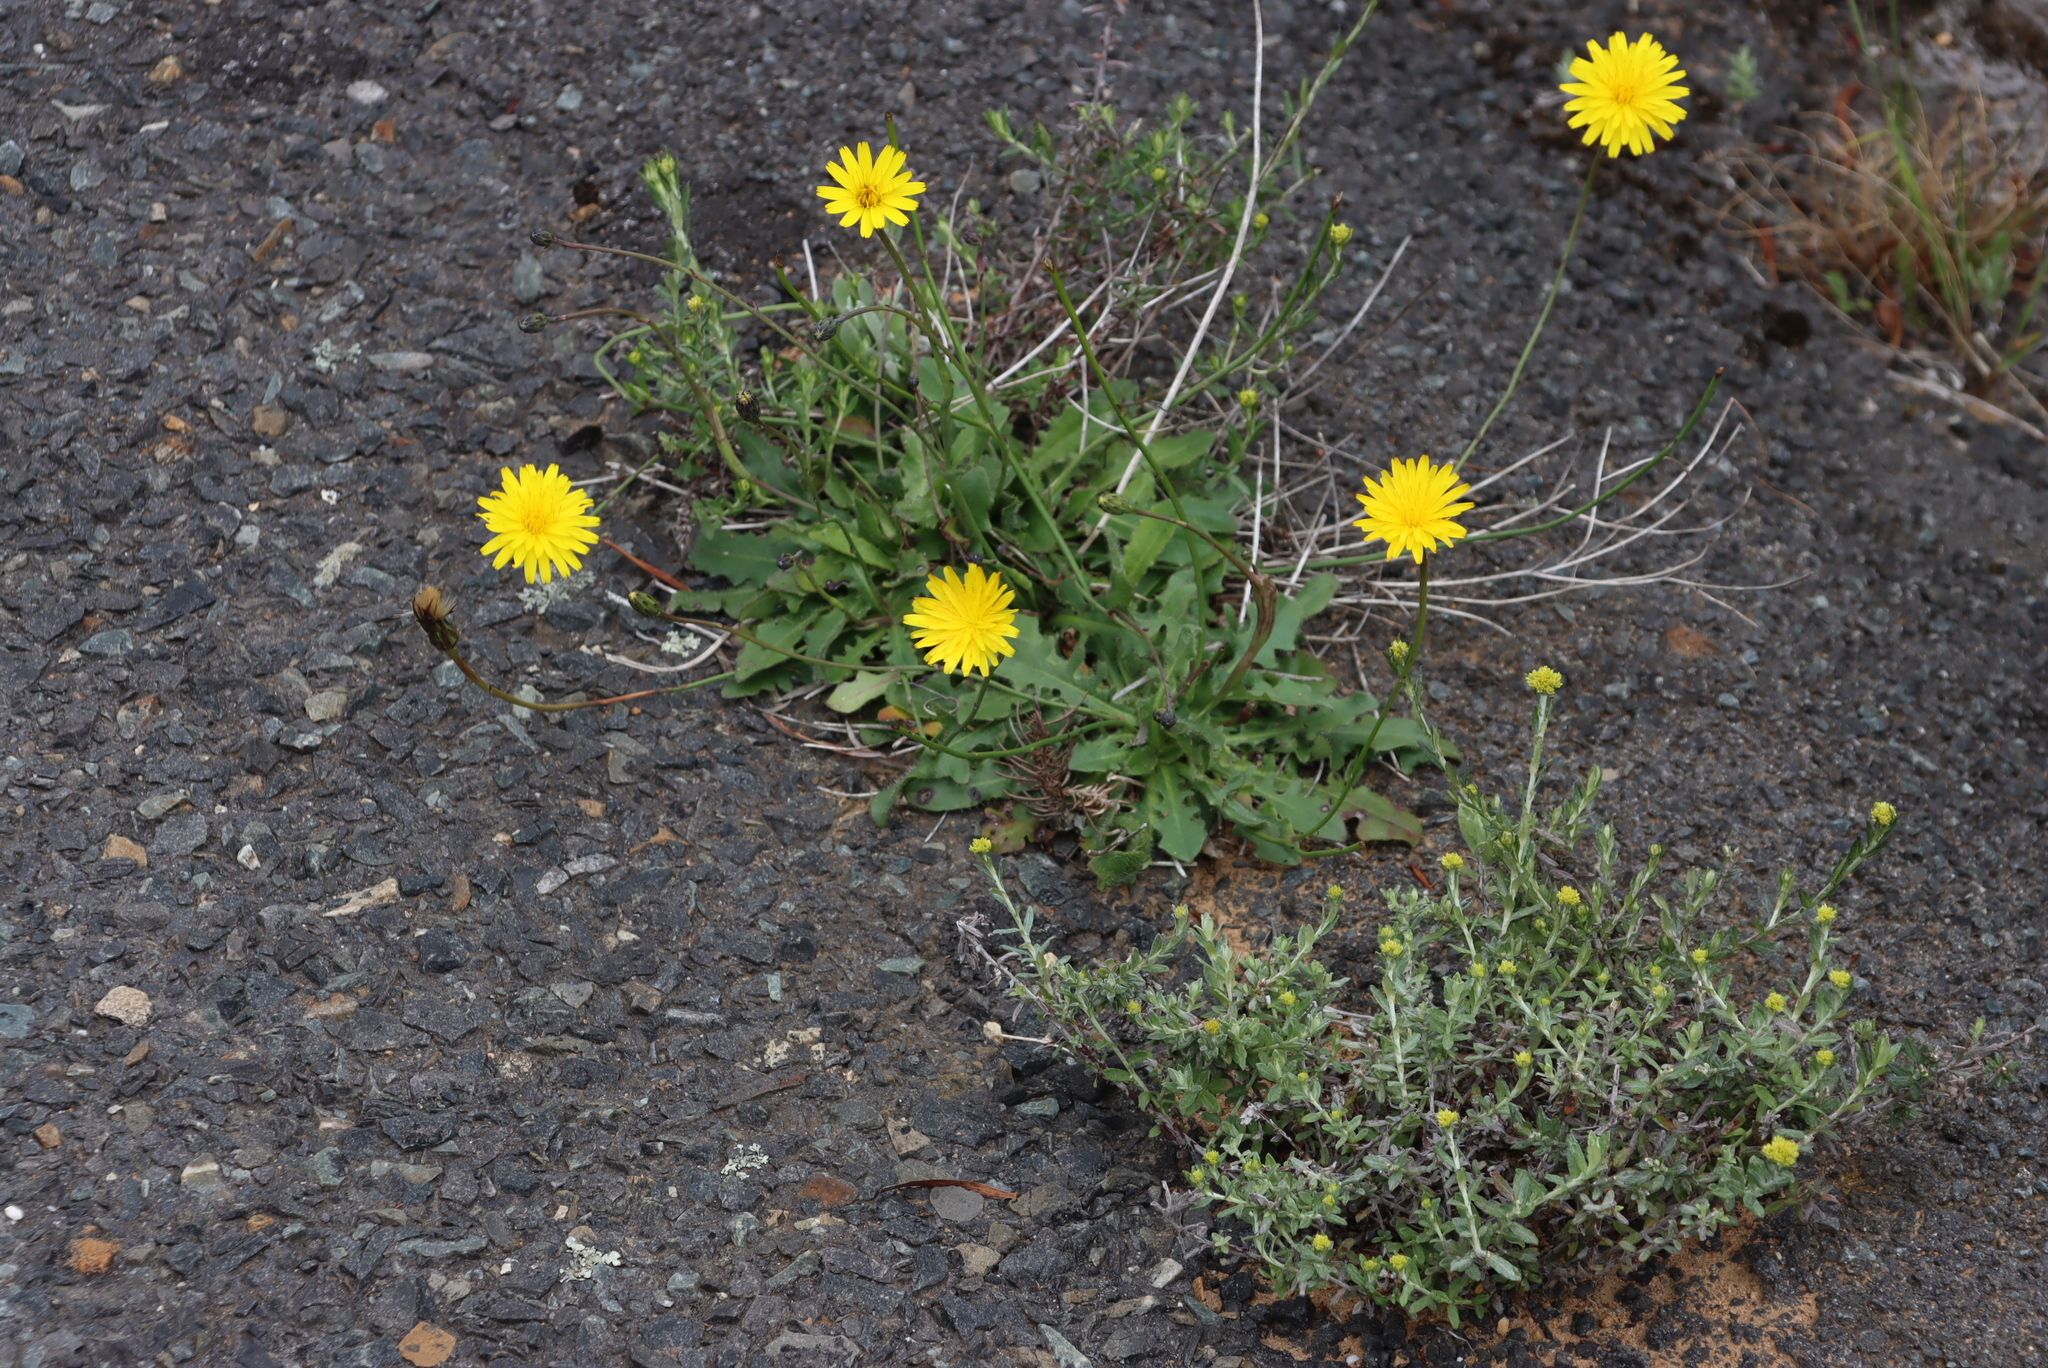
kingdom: Plantae
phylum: Tracheophyta
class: Magnoliopsida
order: Asterales
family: Asteraceae
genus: Hypochaeris
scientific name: Hypochaeris radicata
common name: Flatweed
